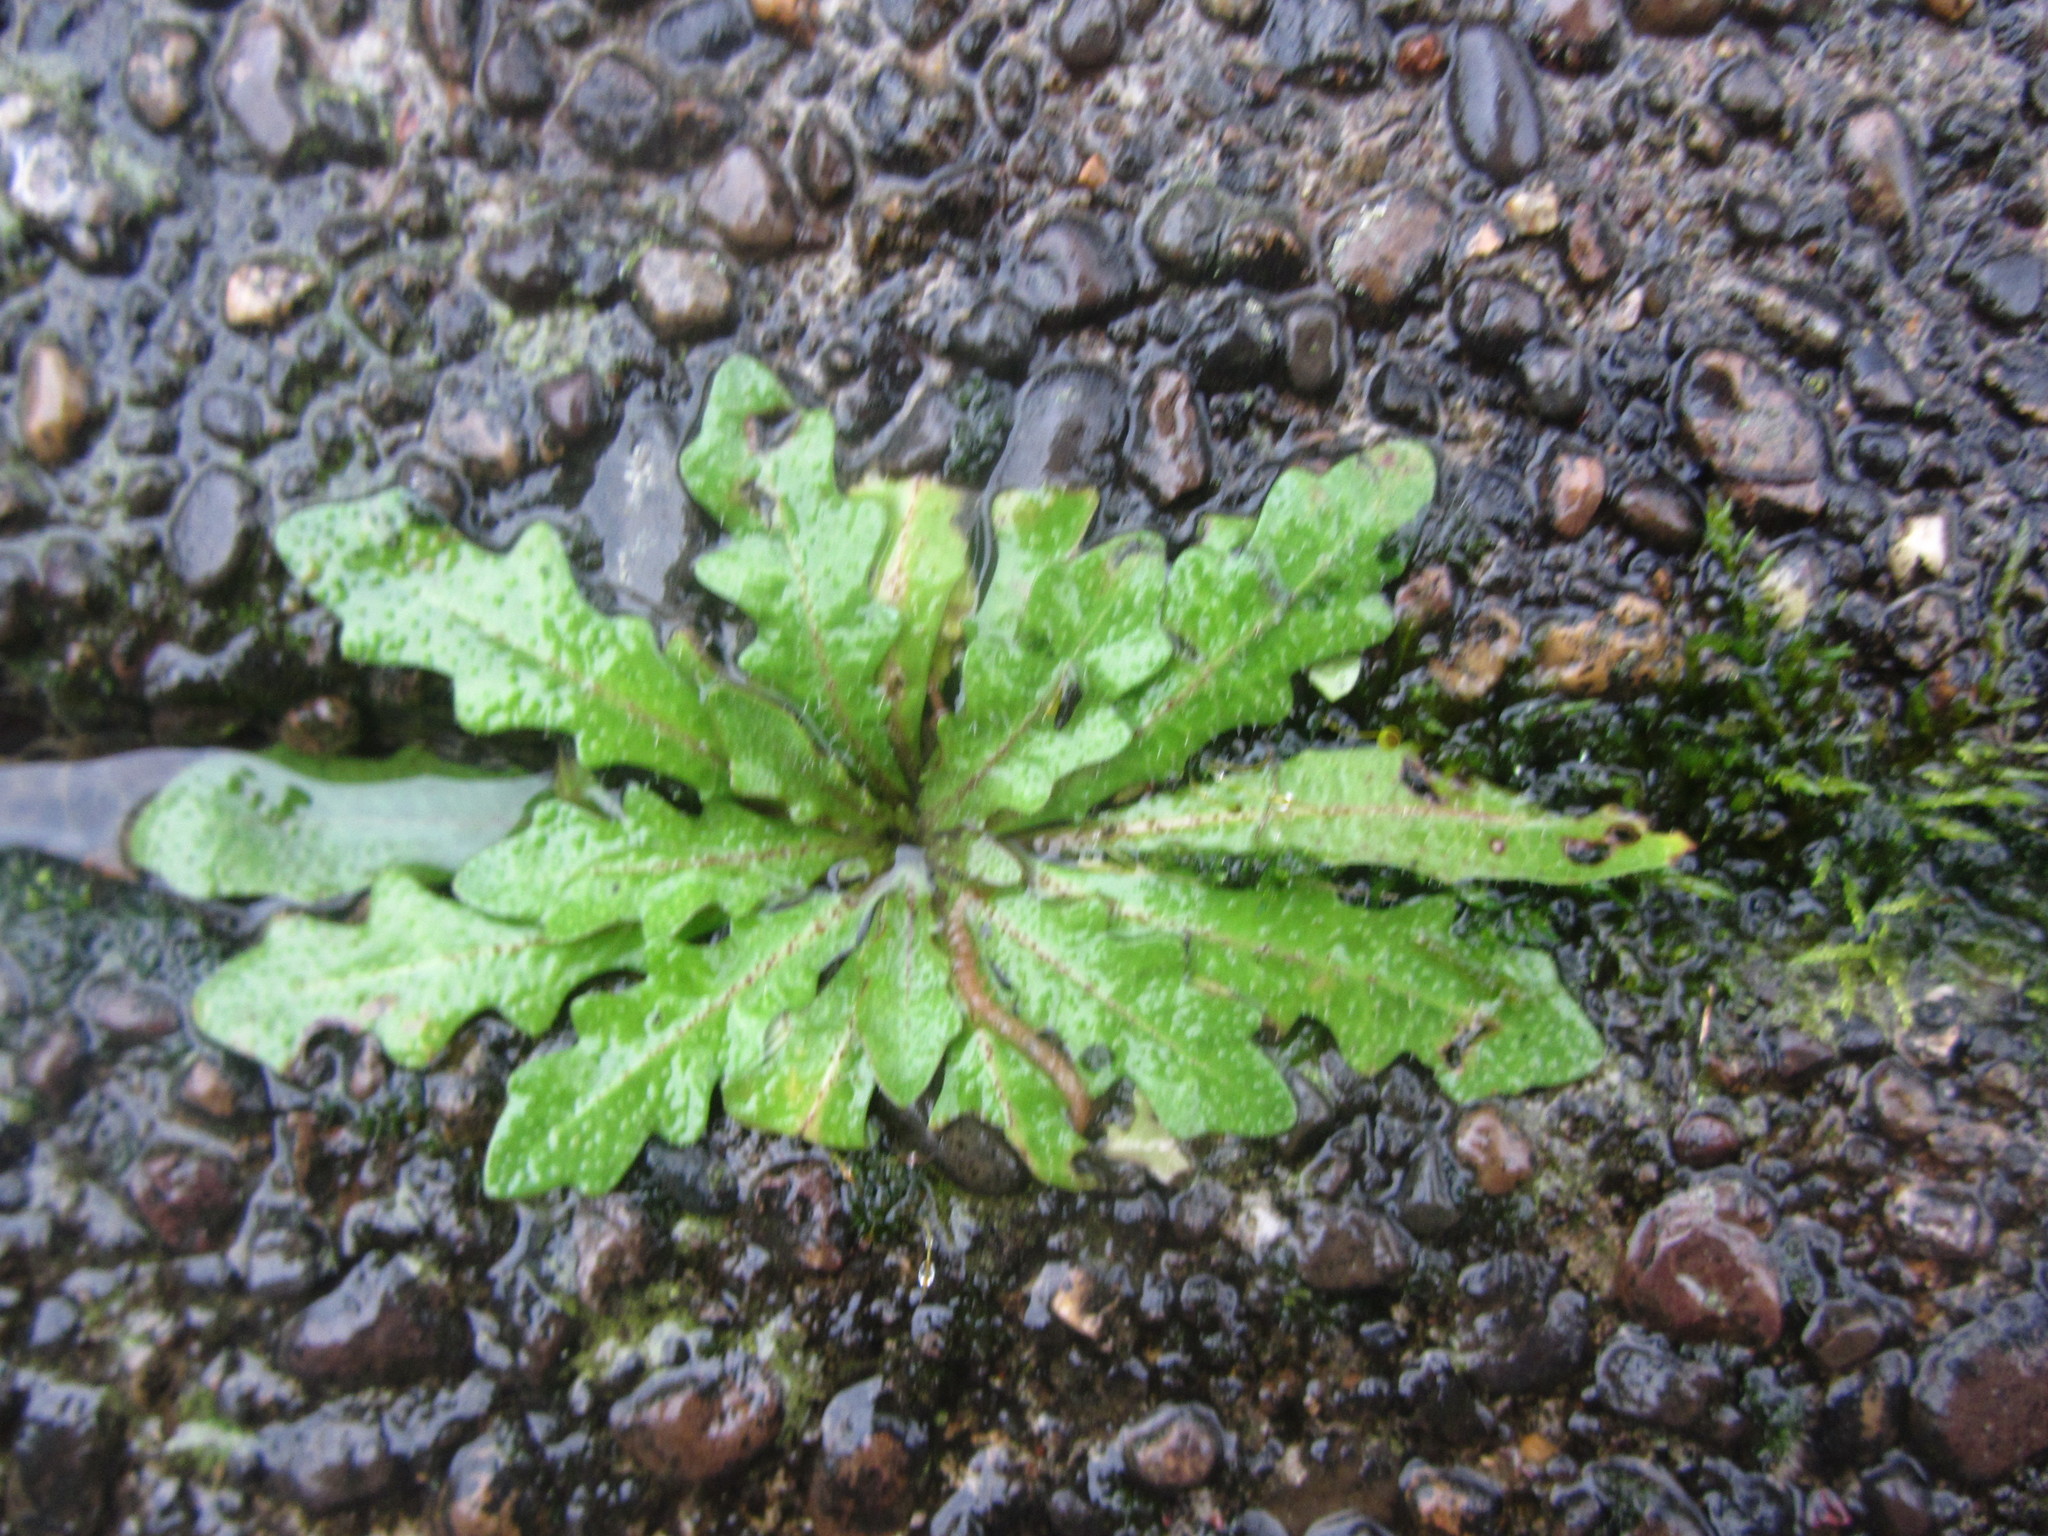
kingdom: Plantae
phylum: Tracheophyta
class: Magnoliopsida
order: Asterales
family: Asteraceae
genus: Hypochaeris
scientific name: Hypochaeris radicata
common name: Flatweed
